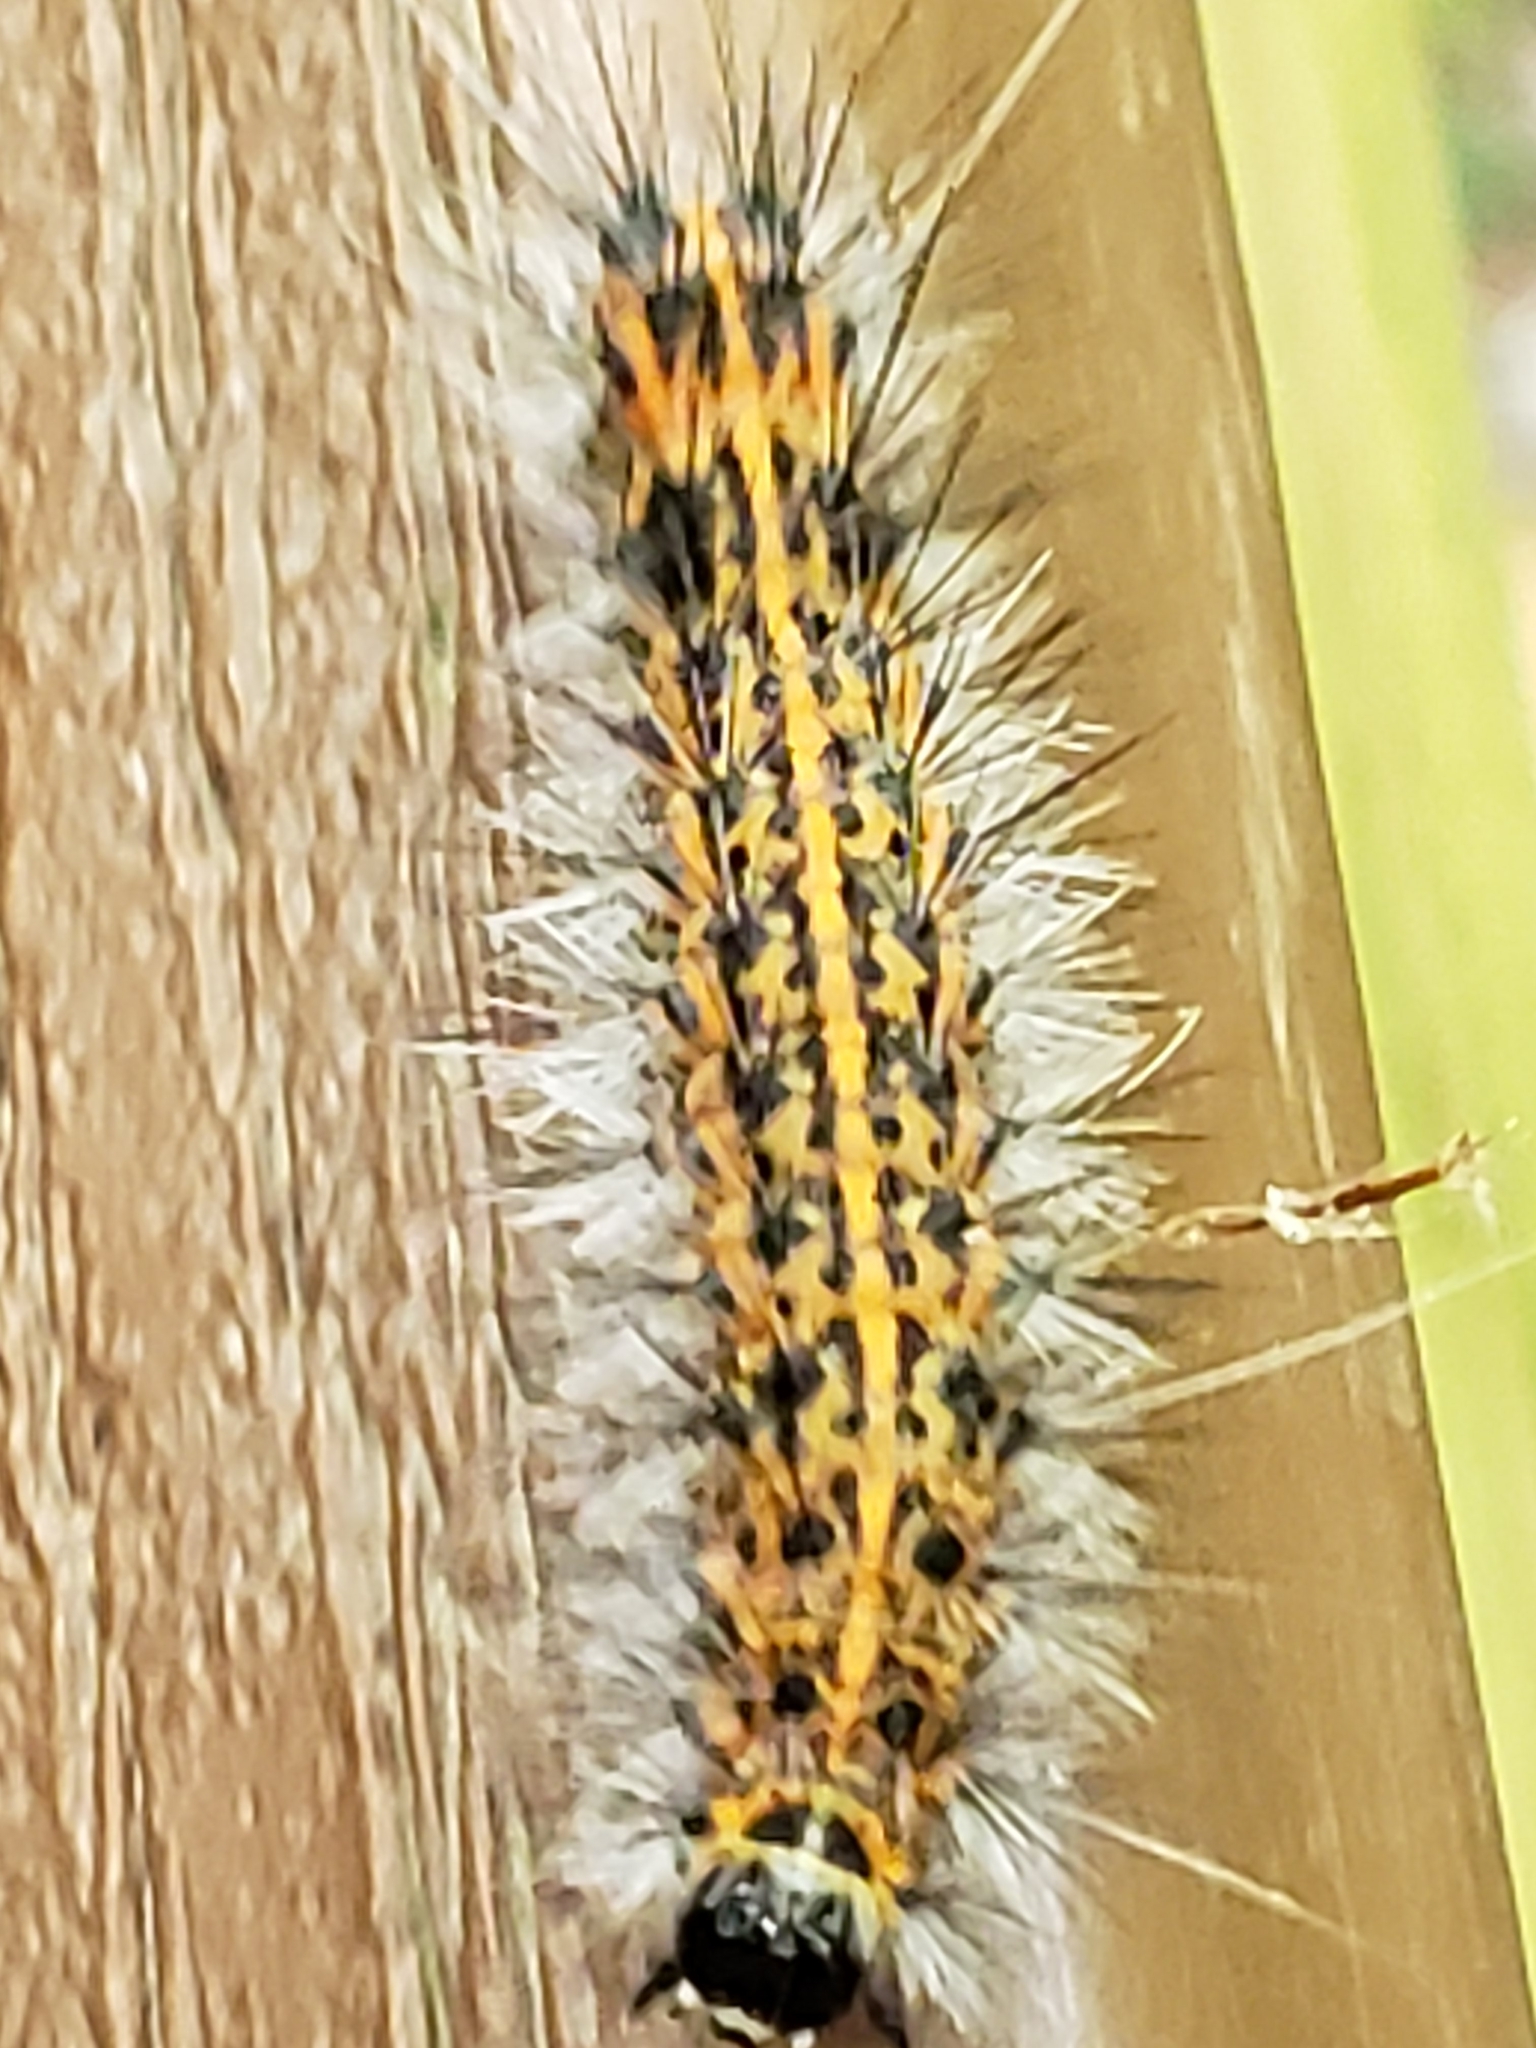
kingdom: Animalia
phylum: Arthropoda
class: Insecta
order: Lepidoptera
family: Erebidae
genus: Spilosoma
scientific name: Spilosoma dubia
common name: Dubious tiger moth
